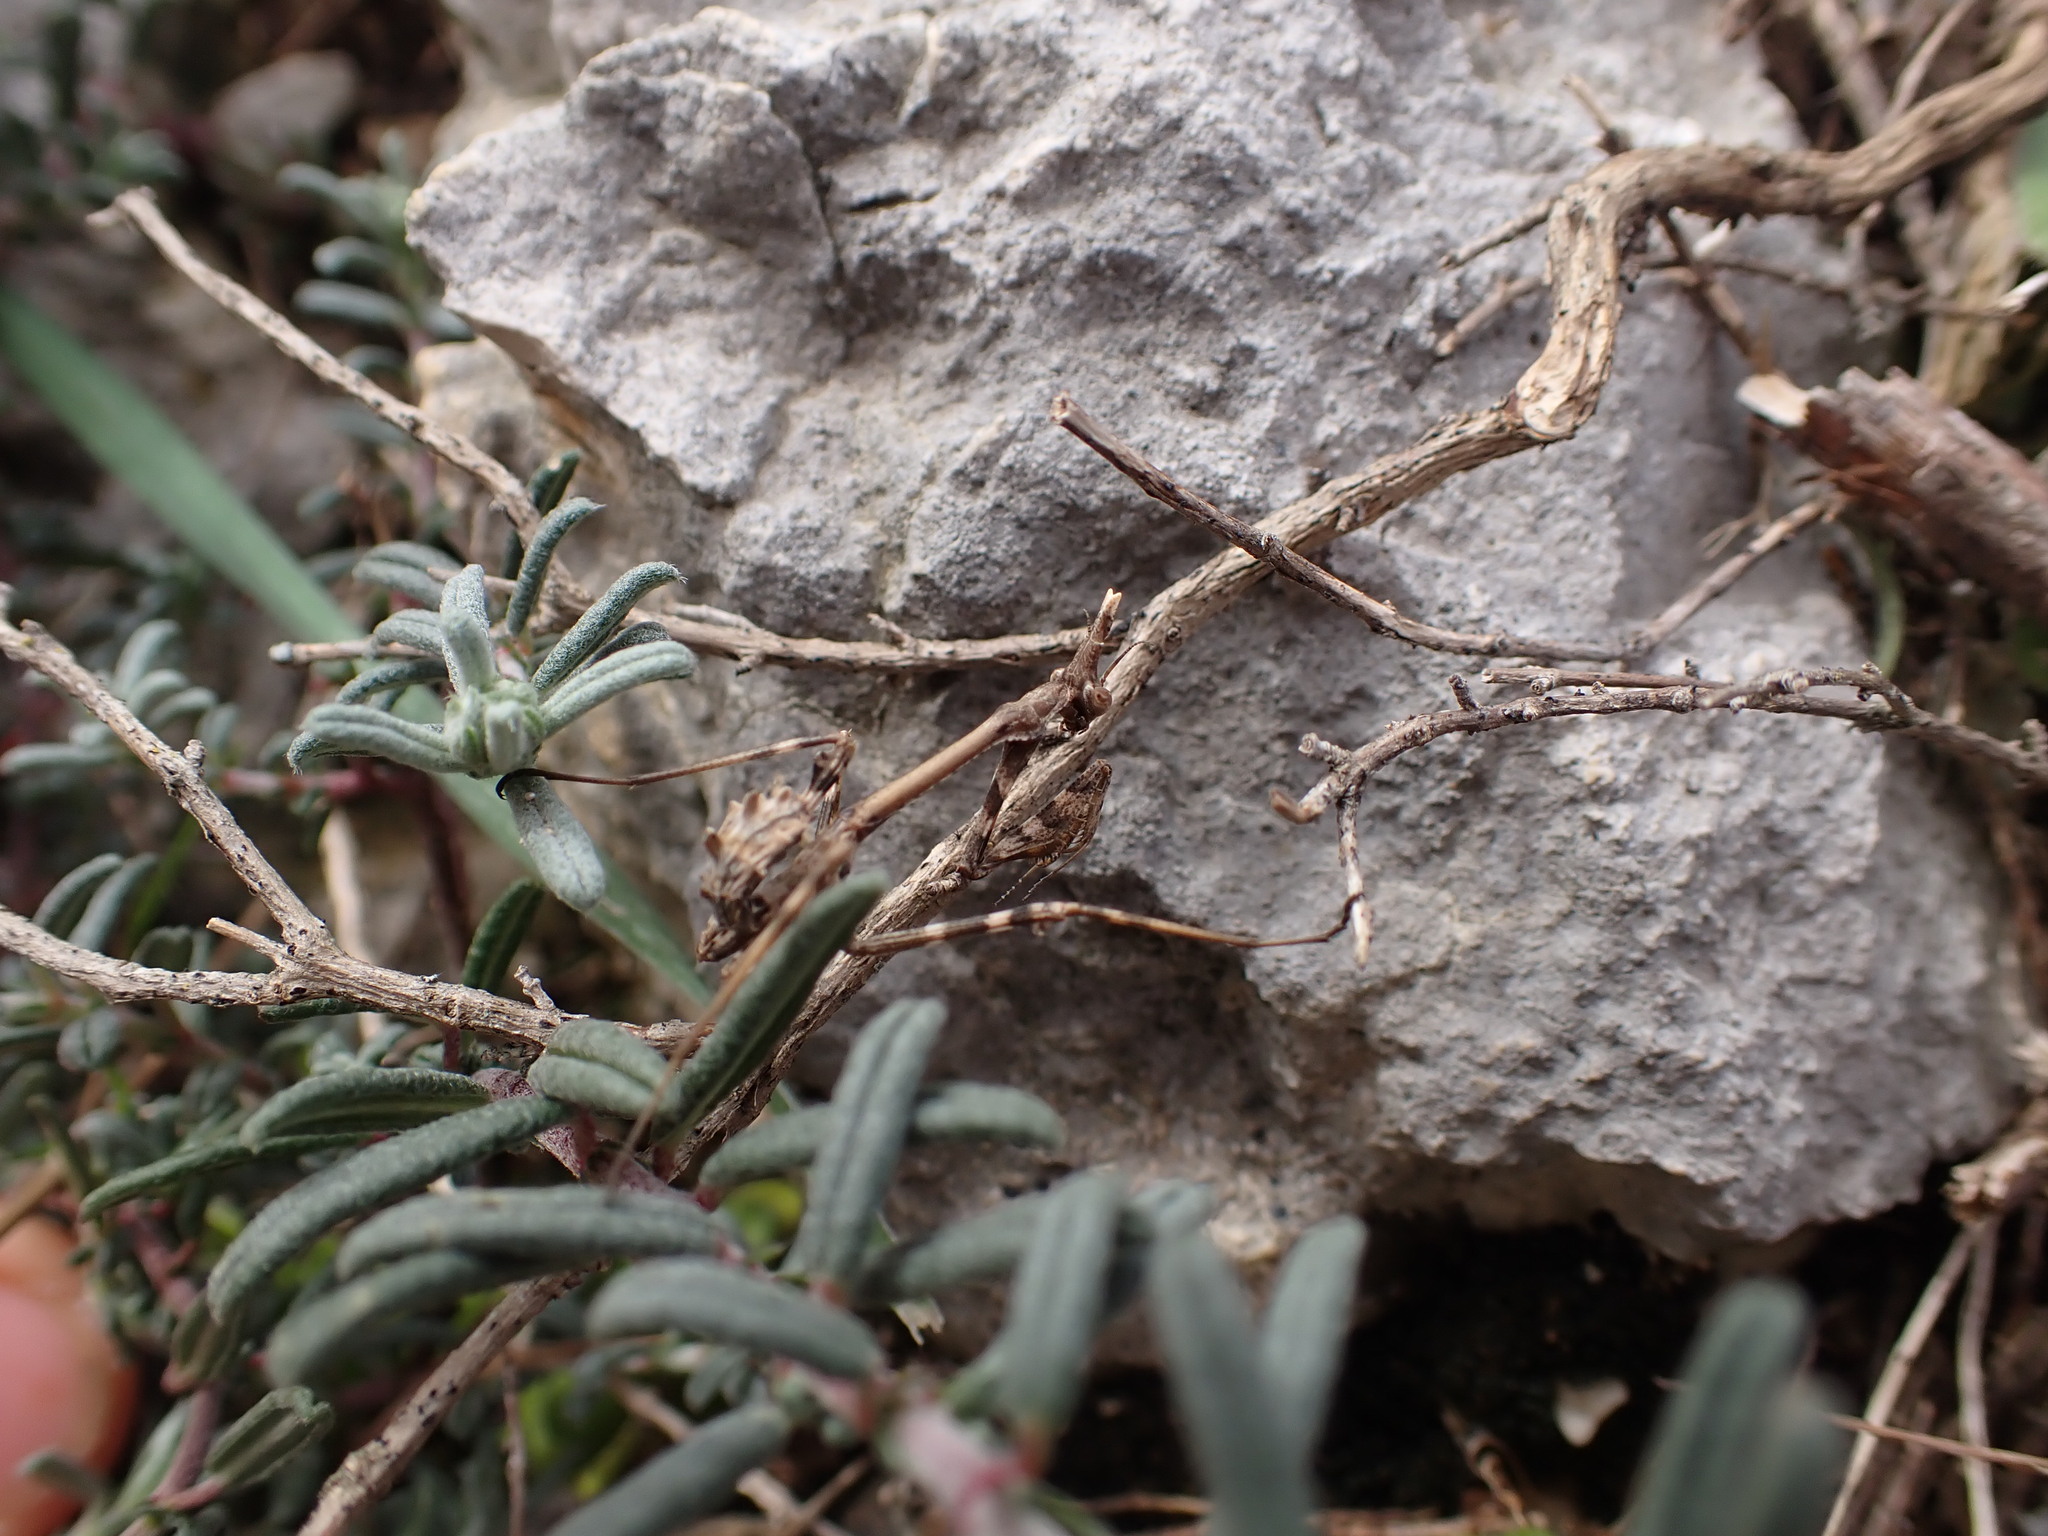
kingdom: Animalia
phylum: Arthropoda
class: Insecta
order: Mantodea
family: Empusidae
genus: Empusa
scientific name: Empusa pennata
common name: Conehead mantis
